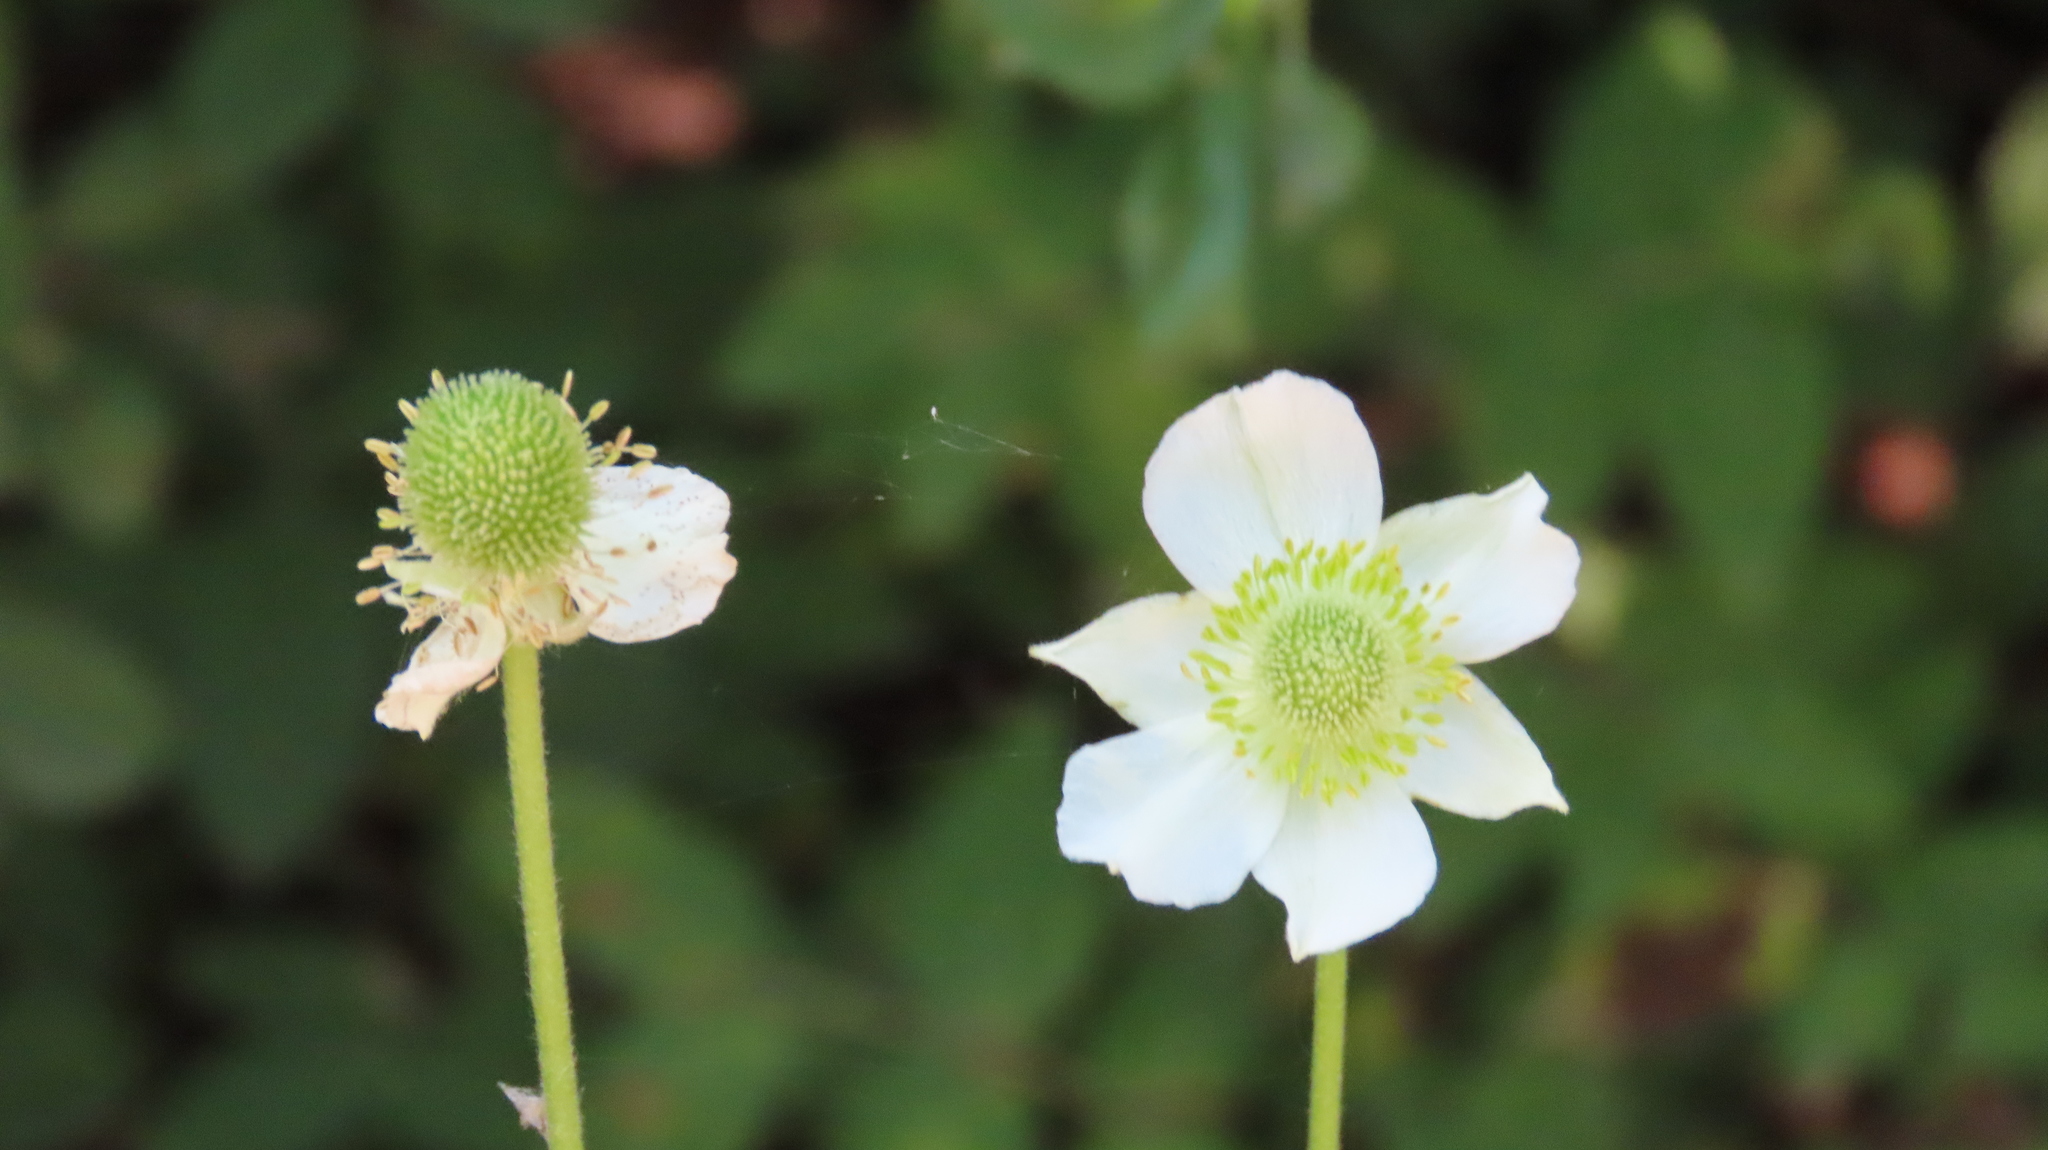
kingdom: Plantae
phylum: Tracheophyta
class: Magnoliopsida
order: Ranunculales
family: Ranunculaceae
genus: Anemone
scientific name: Anemone virginiana
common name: Tall anemone
